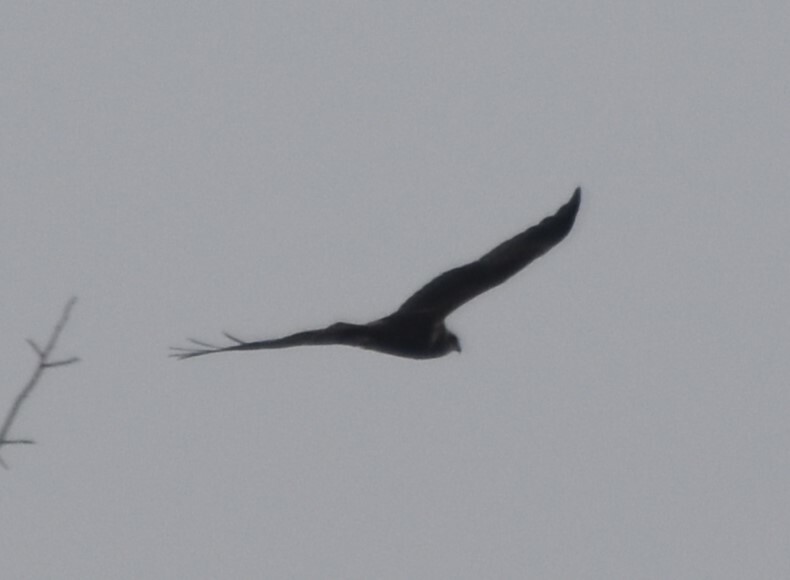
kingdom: Animalia
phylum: Chordata
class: Aves
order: Accipitriformes
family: Accipitridae
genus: Circus
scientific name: Circus aeruginosus
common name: Western marsh harrier
